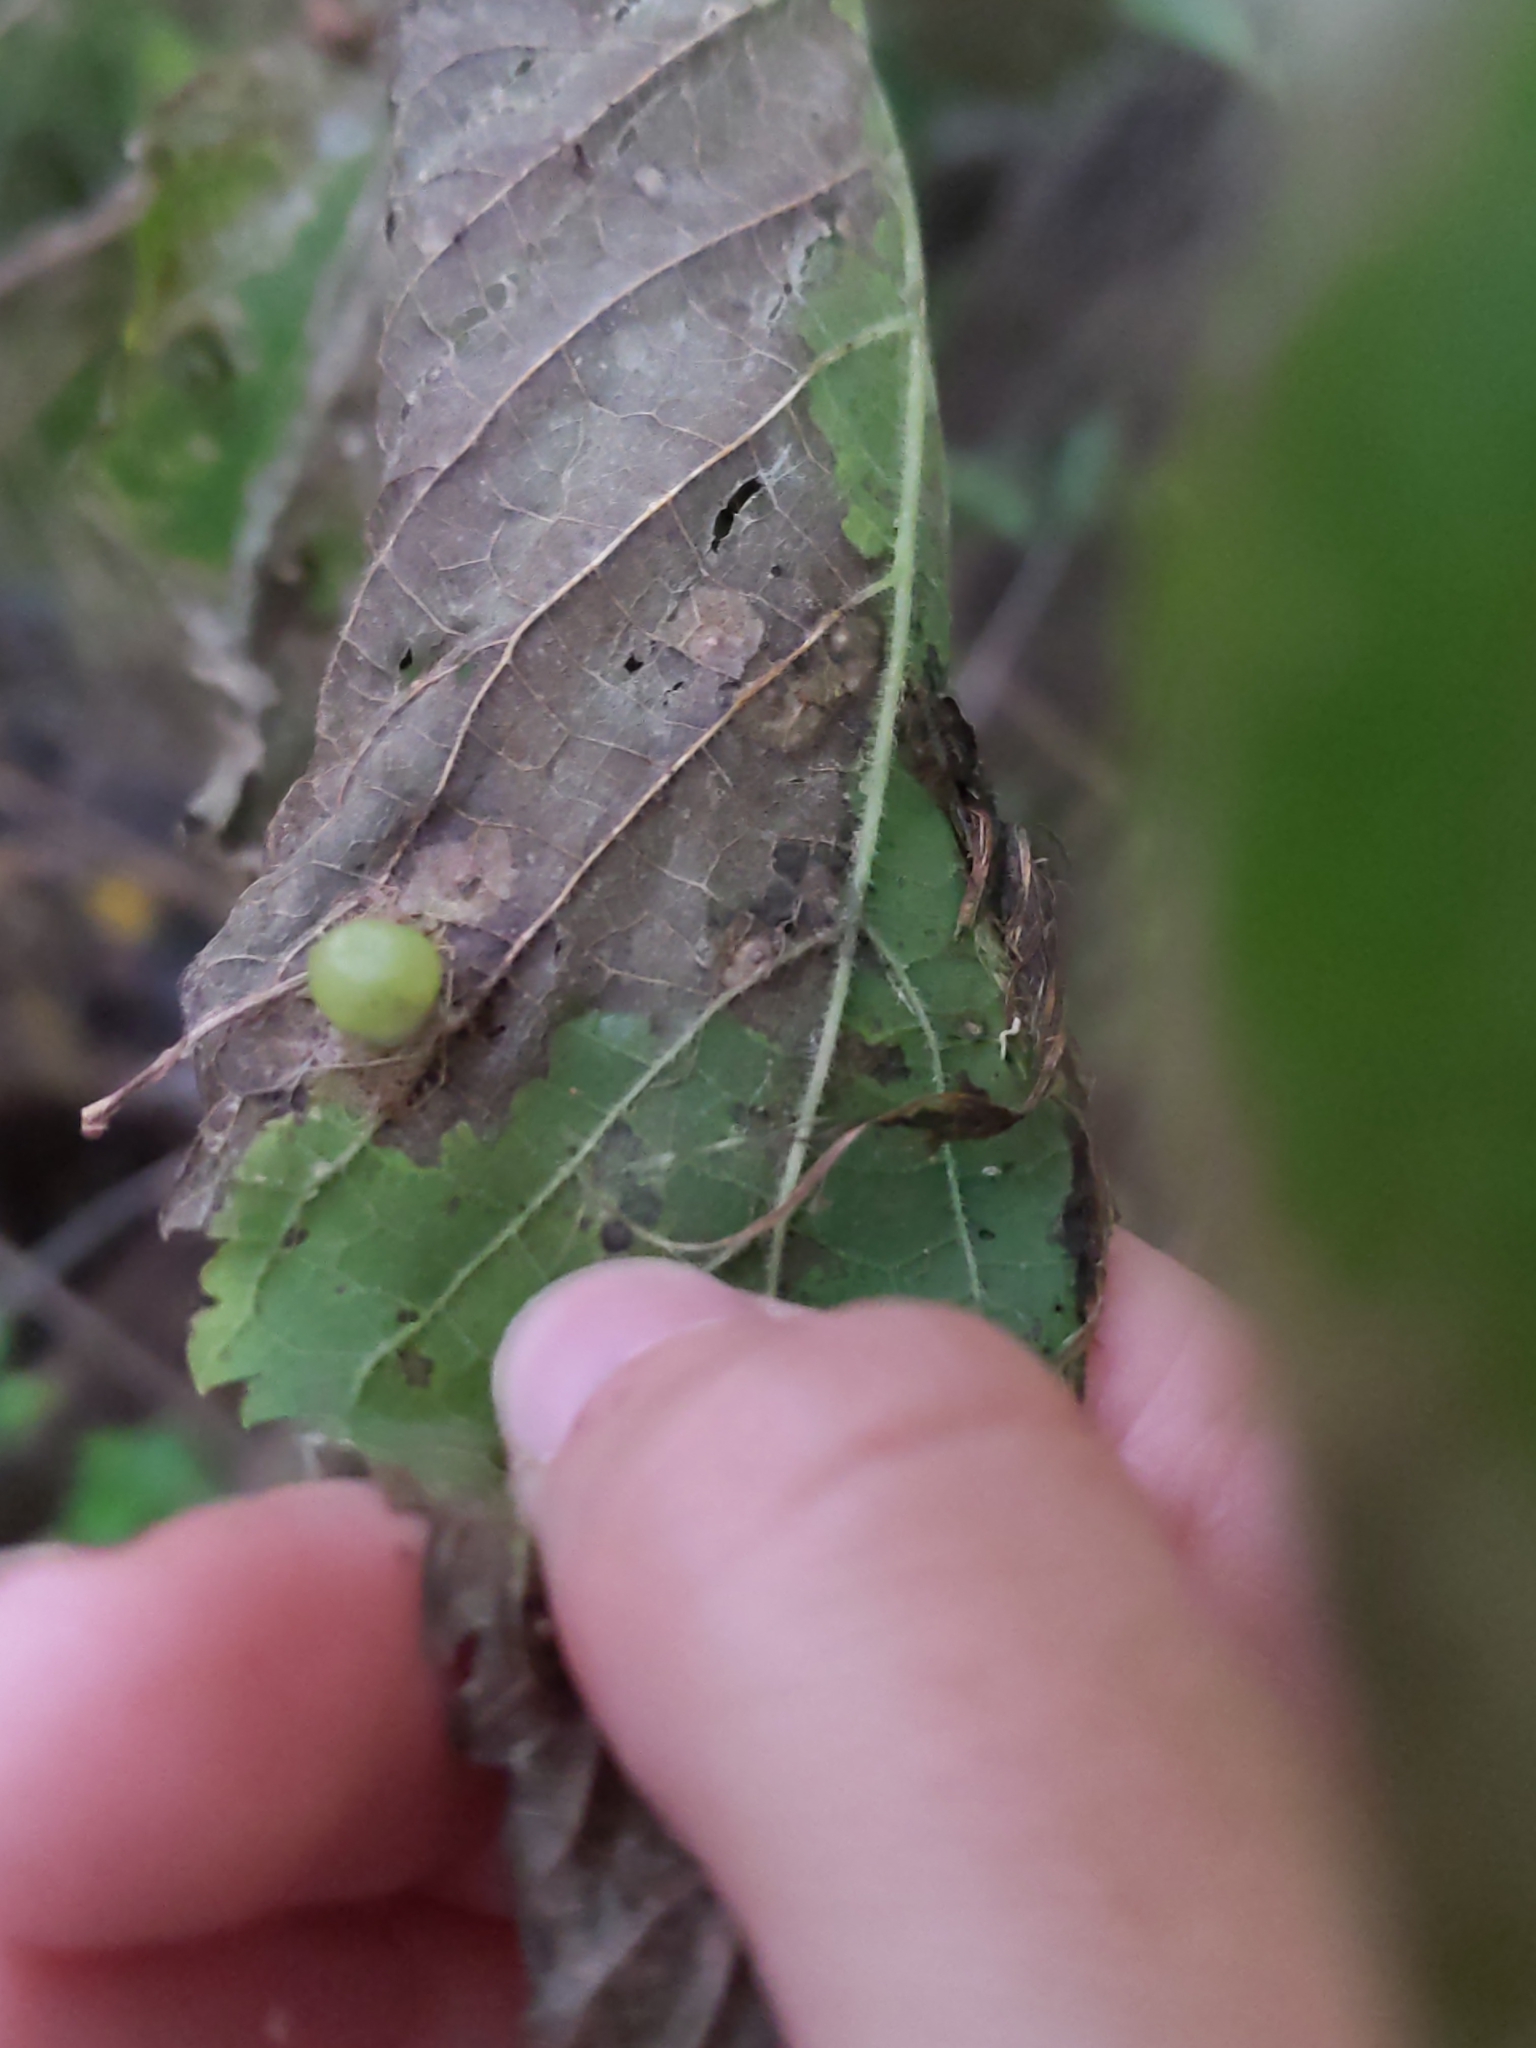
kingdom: Animalia
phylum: Arthropoda
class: Insecta
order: Hemiptera
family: Aphalaridae
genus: Pachypsylla
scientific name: Pachypsylla celtidismamma
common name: Hackberry nipplegall psyllid
